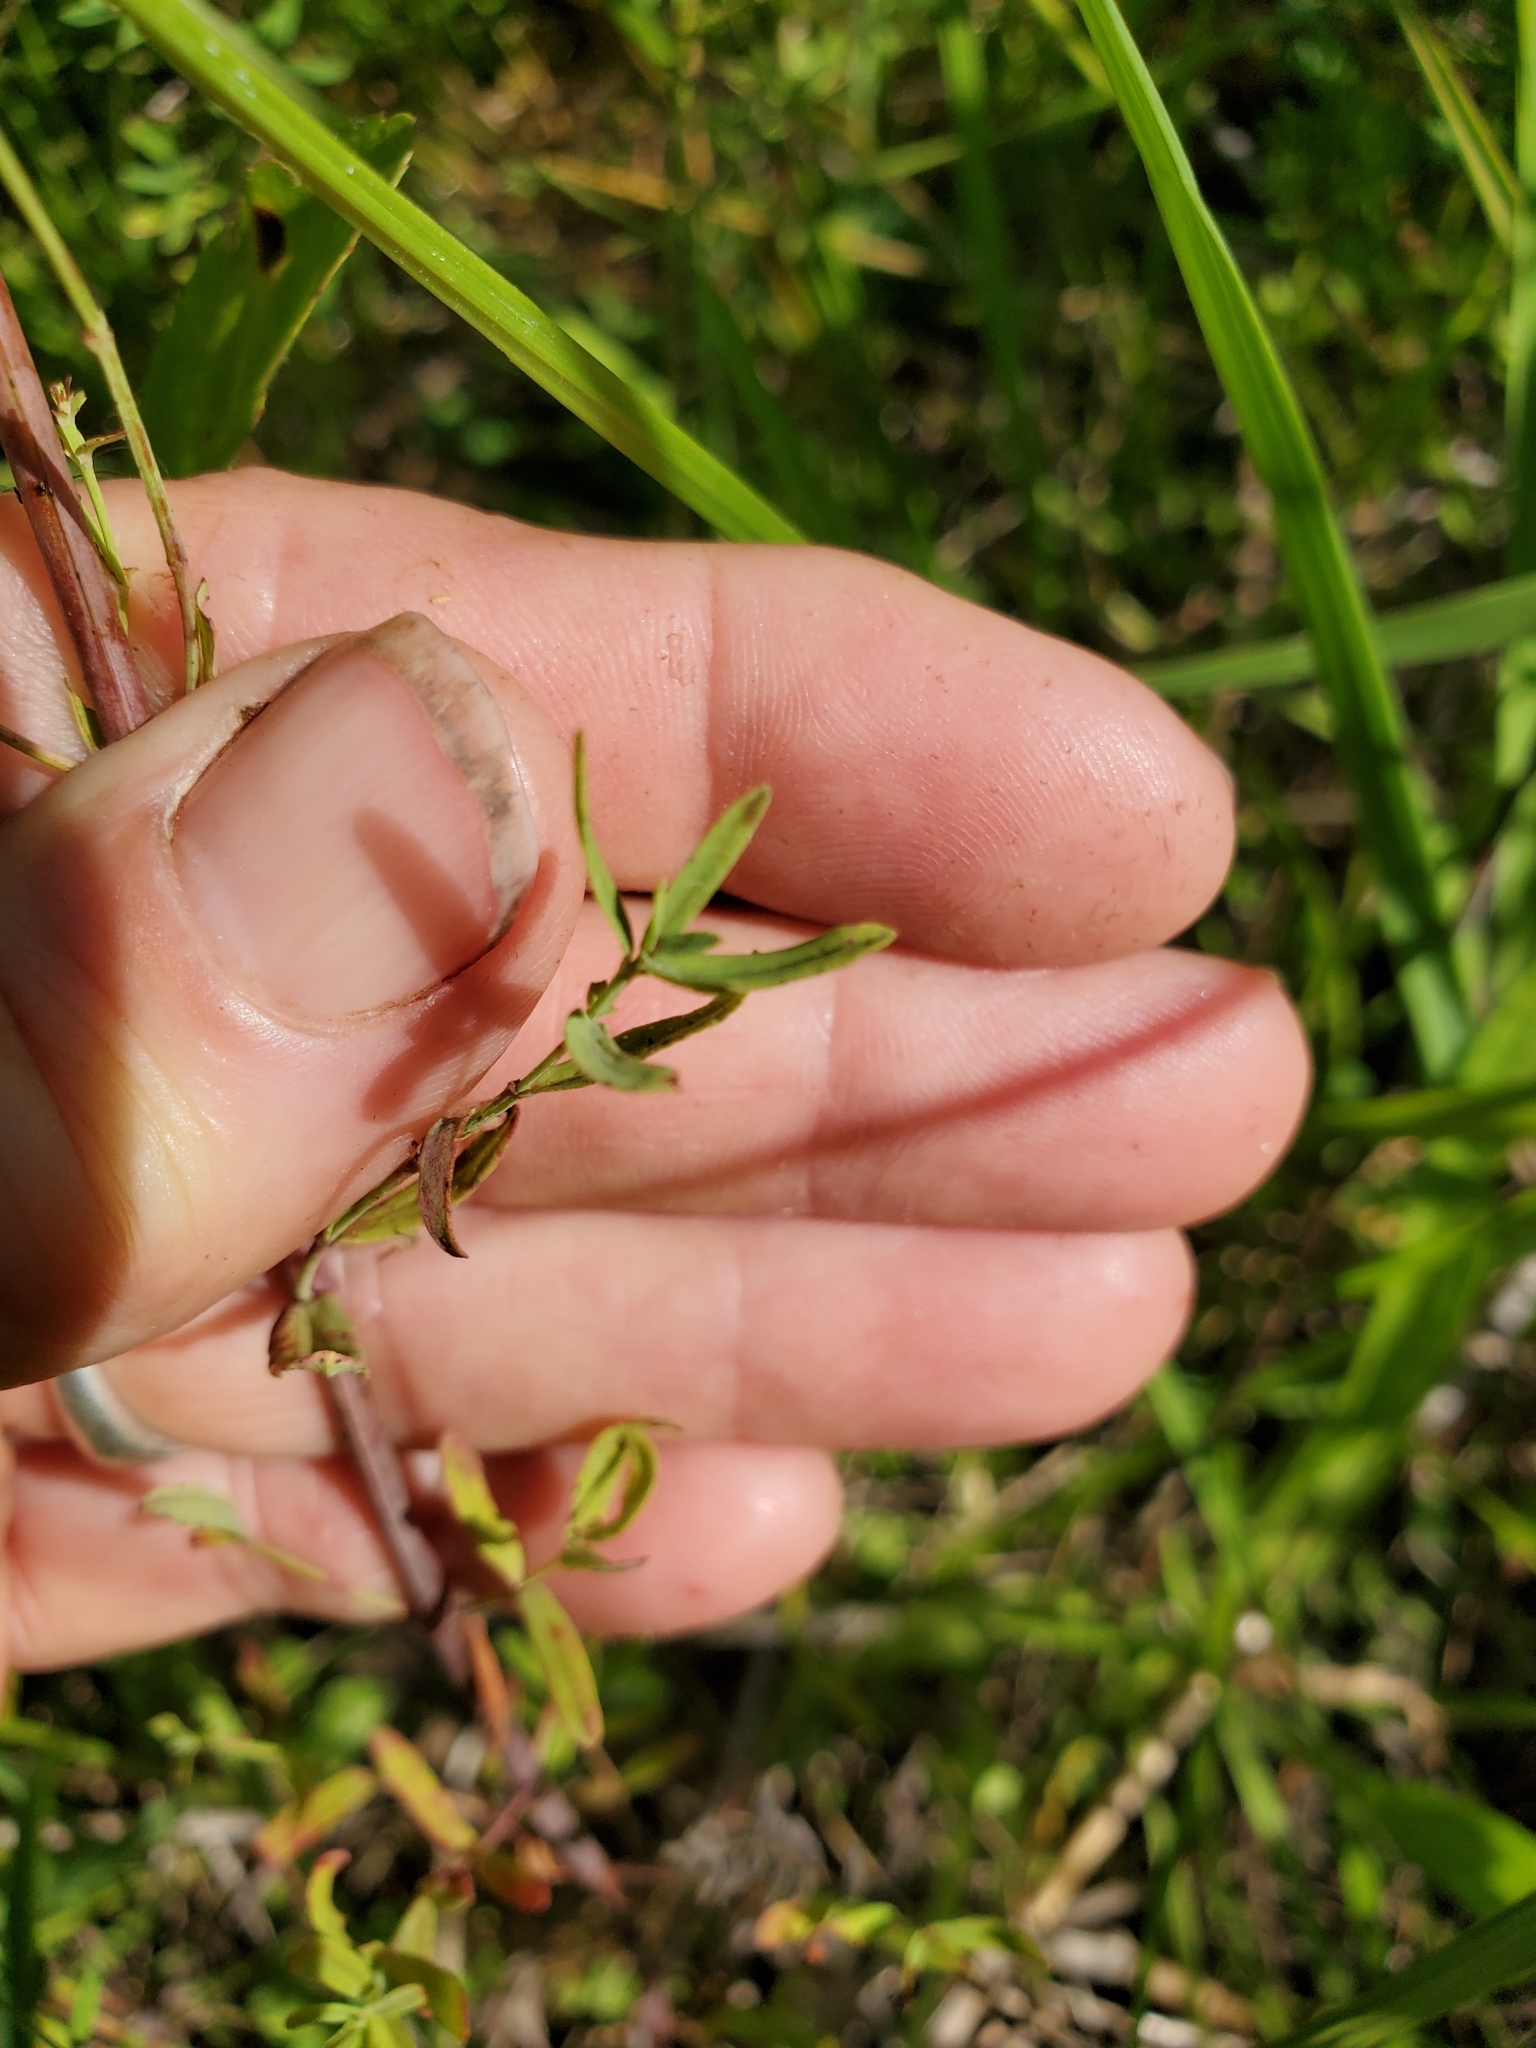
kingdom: Plantae
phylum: Tracheophyta
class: Magnoliopsida
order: Malpighiales
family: Hypericaceae
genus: Hypericum
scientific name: Hypericum perforatum
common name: Common st. johnswort
